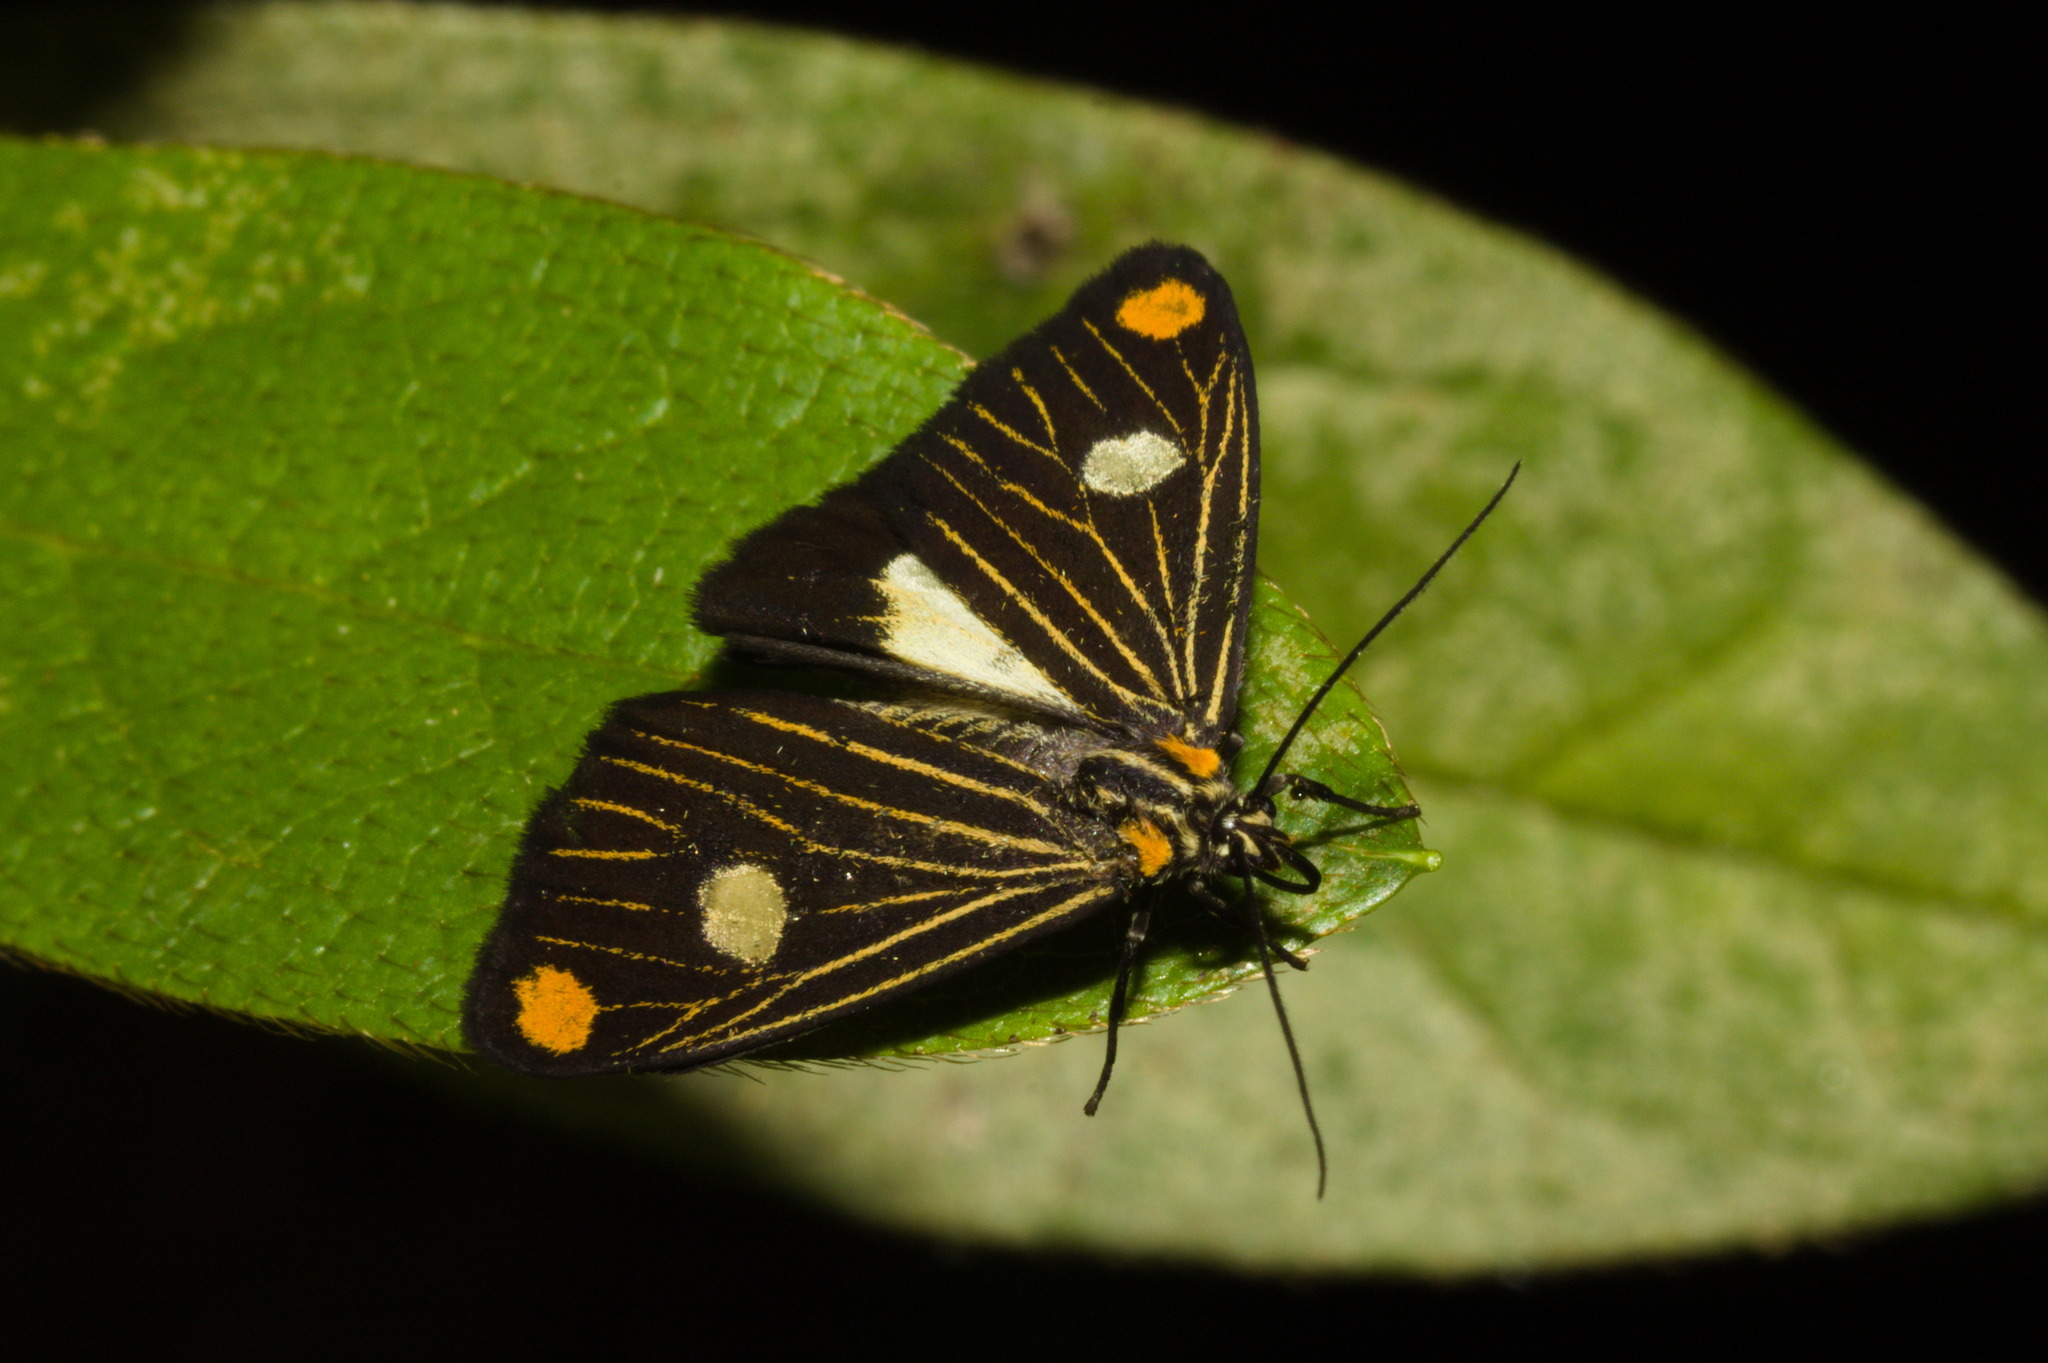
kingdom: Animalia
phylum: Arthropoda
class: Insecta
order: Lepidoptera
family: Notodontidae
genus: Polypoetes
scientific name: Polypoetes
